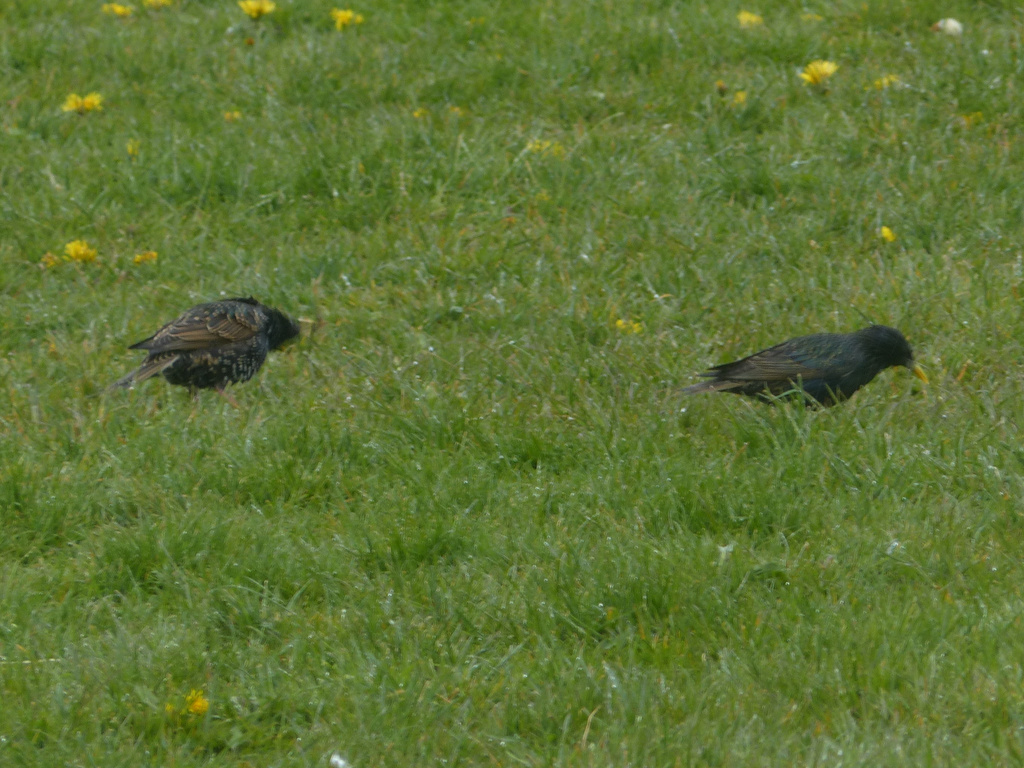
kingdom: Animalia
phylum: Chordata
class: Aves
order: Passeriformes
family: Sturnidae
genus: Sturnus
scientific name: Sturnus vulgaris
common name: Common starling
